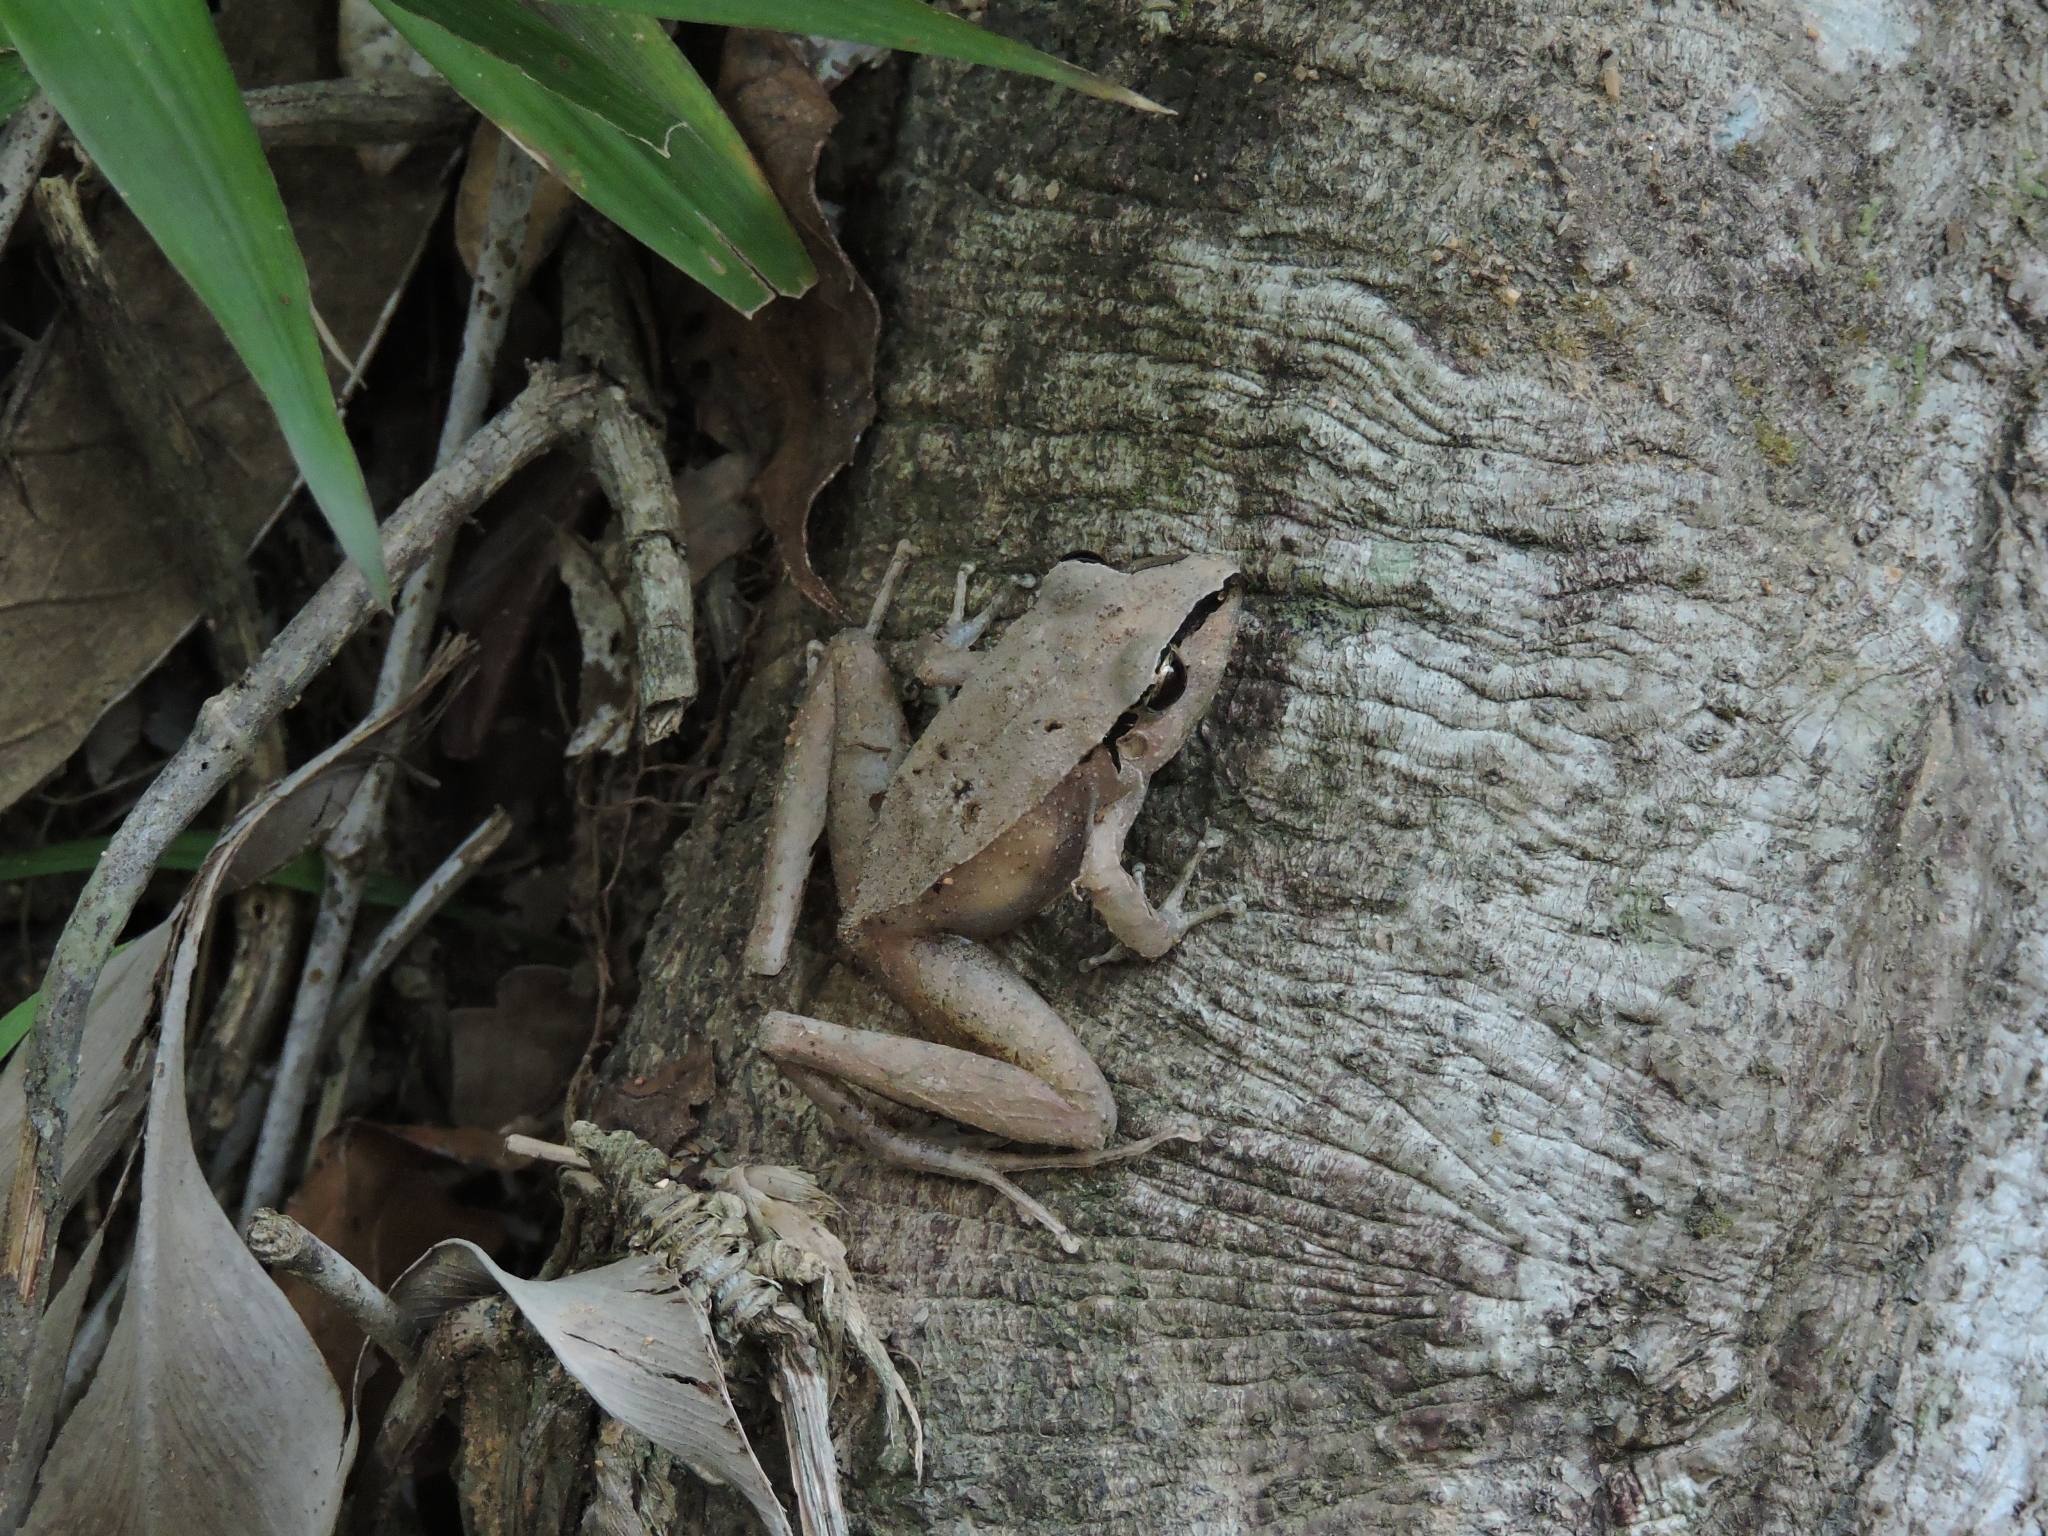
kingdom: Animalia
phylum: Chordata
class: Amphibia
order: Anura
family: Brachycephalidae
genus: Ischnocnema
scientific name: Ischnocnema henselii
